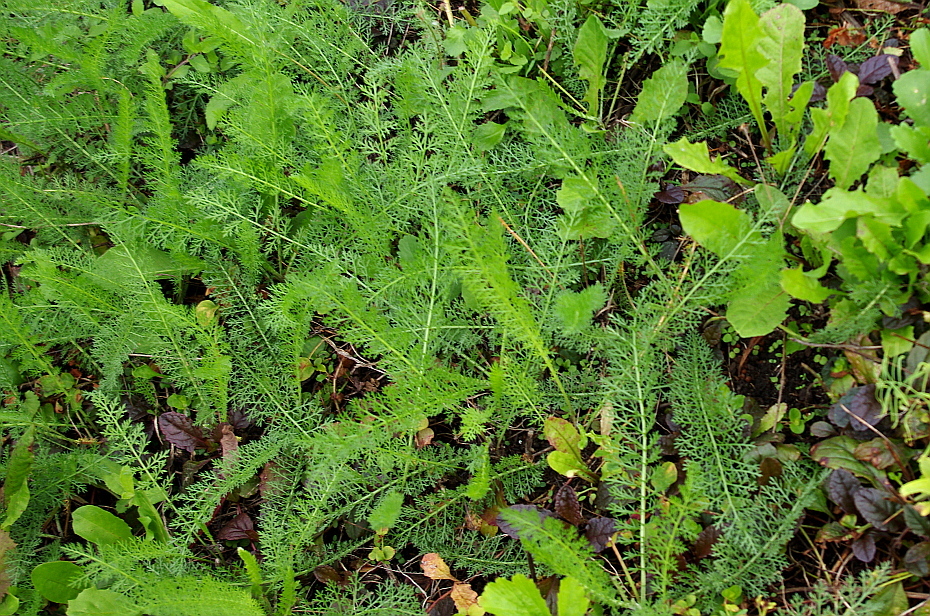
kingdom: Plantae
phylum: Tracheophyta
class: Magnoliopsida
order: Asterales
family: Asteraceae
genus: Achillea
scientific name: Achillea millefolium
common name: Yarrow
